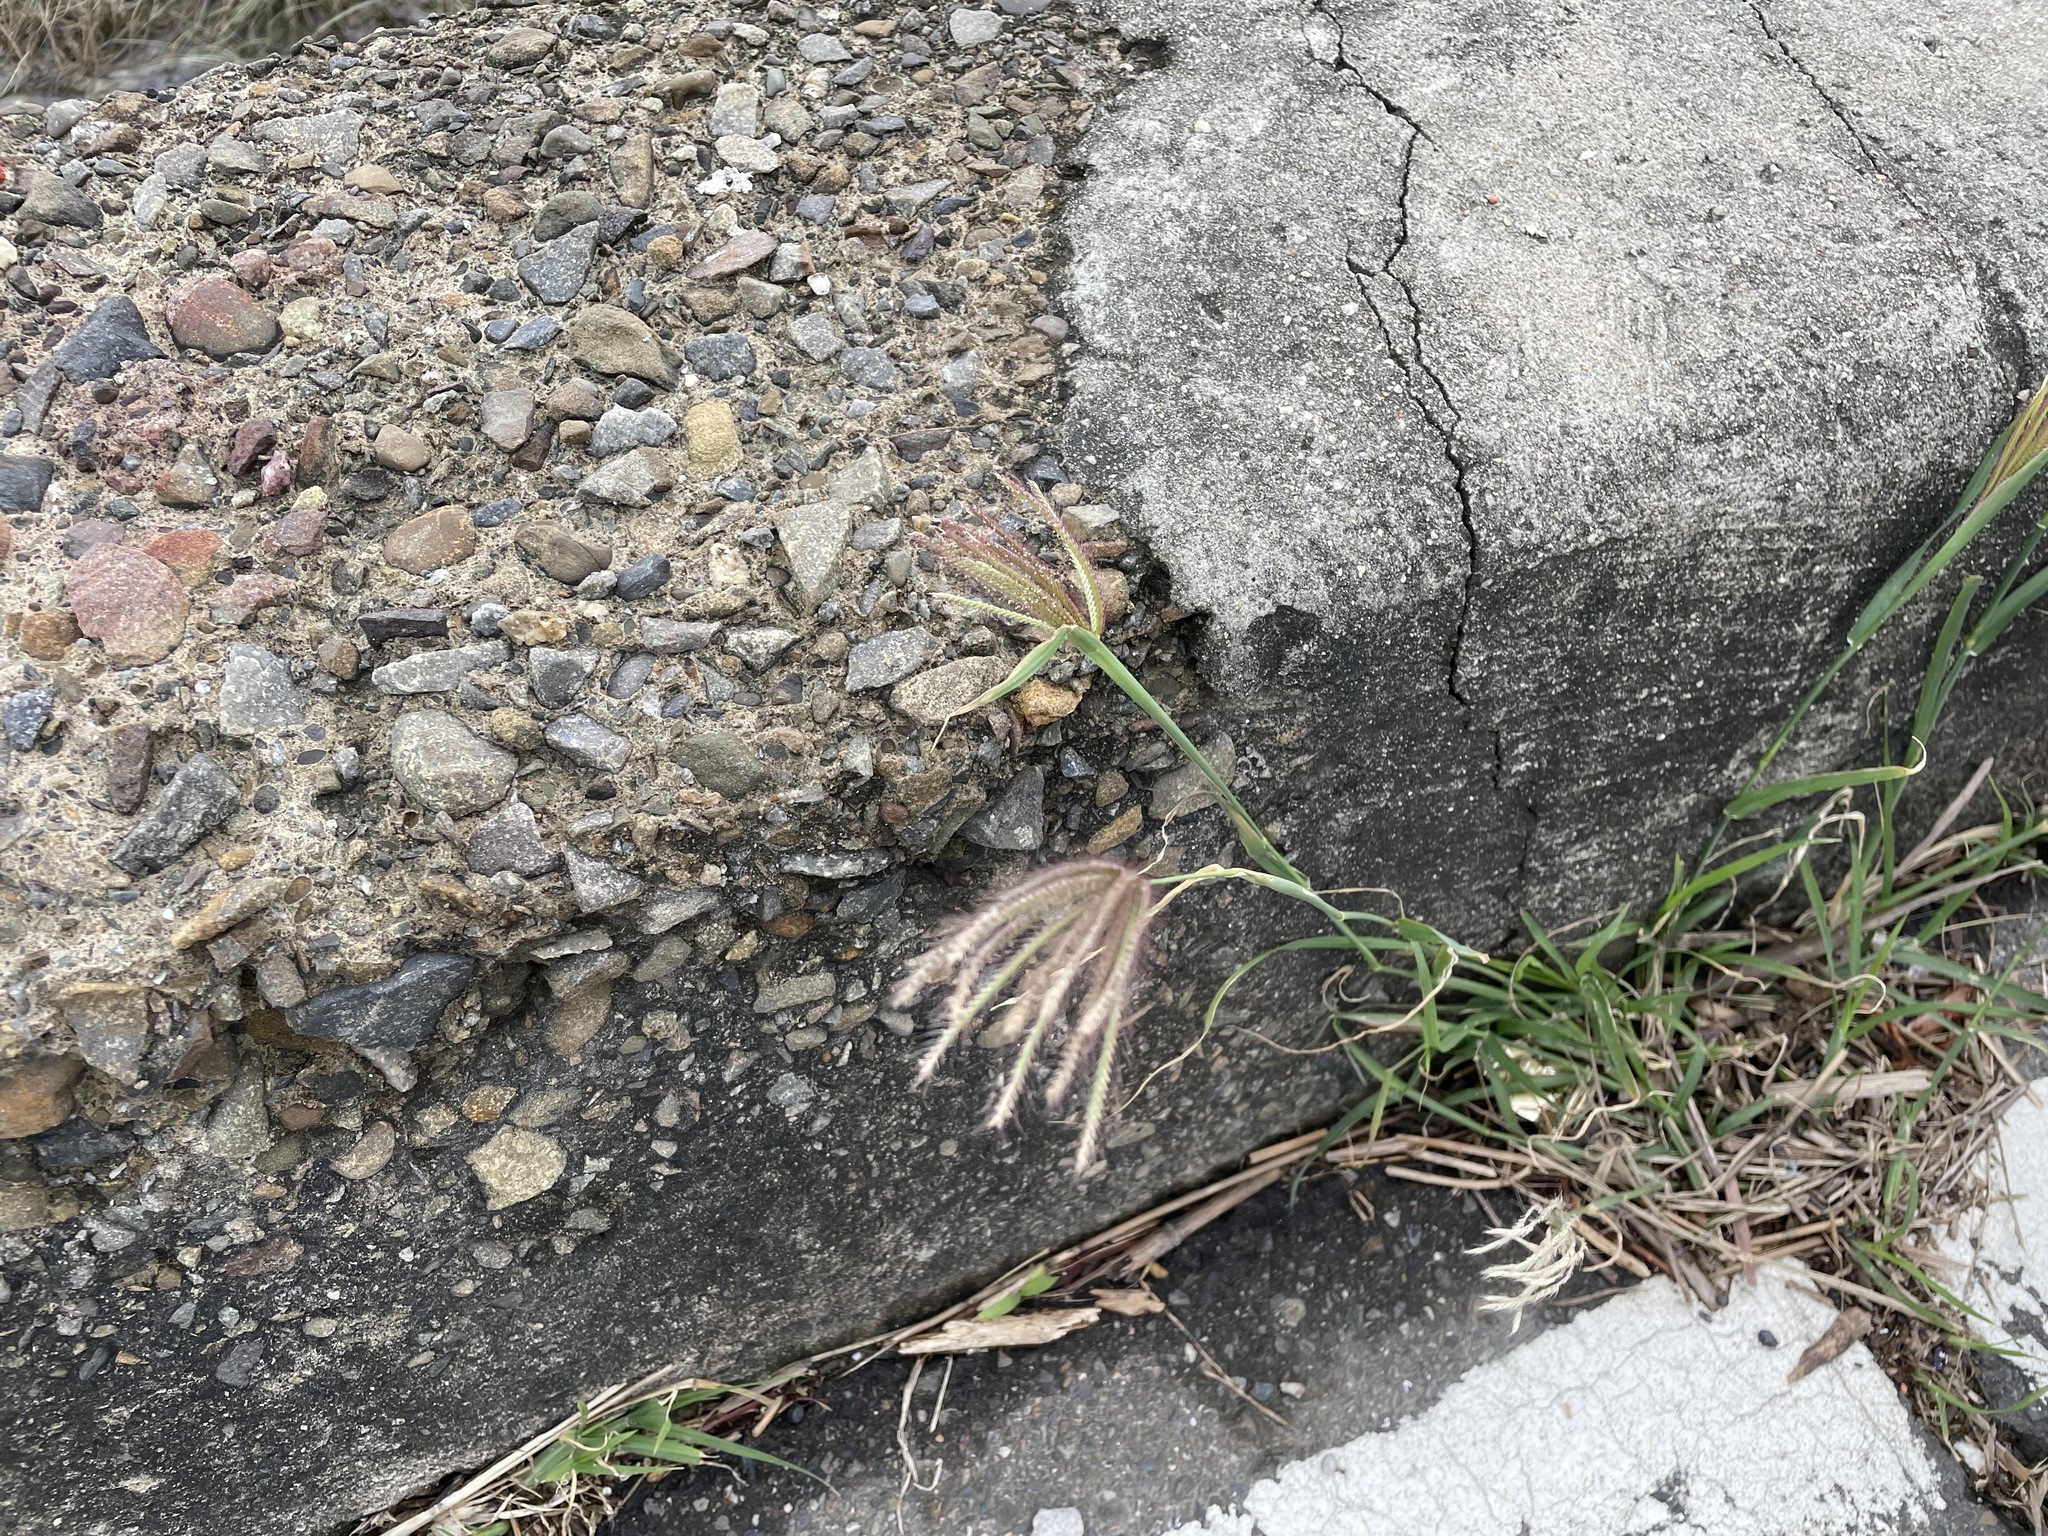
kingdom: Plantae
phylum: Tracheophyta
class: Liliopsida
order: Poales
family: Poaceae
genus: Chloris
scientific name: Chloris barbata
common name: Swollen fingergrass
